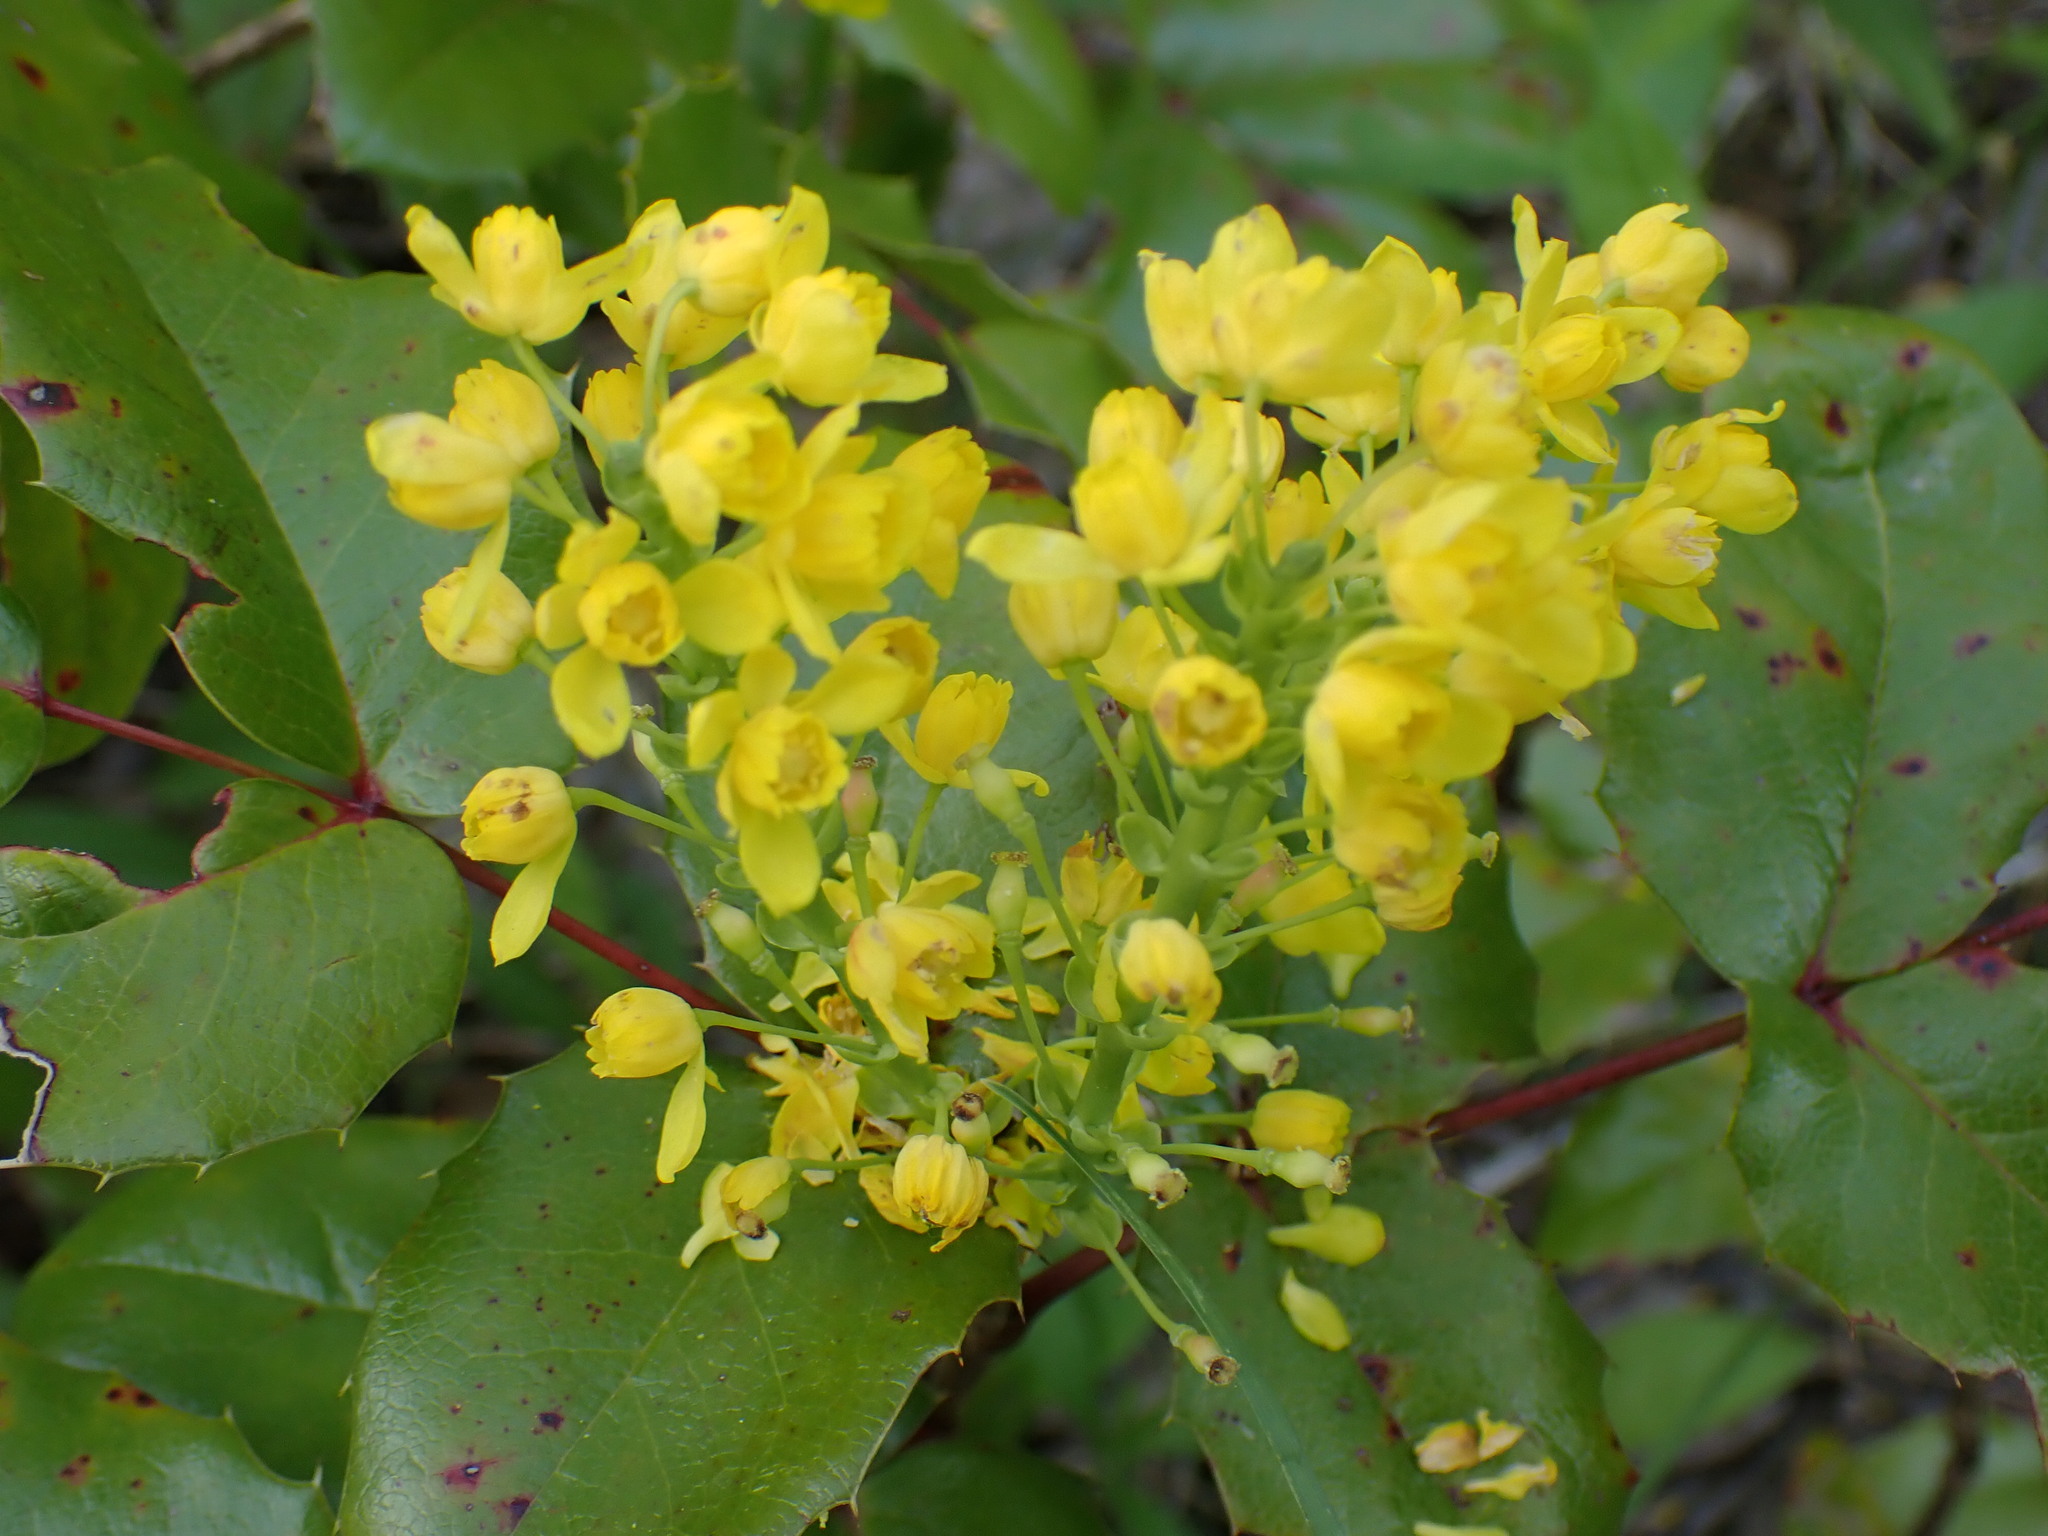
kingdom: Plantae
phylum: Tracheophyta
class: Magnoliopsida
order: Ranunculales
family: Berberidaceae
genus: Mahonia
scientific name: Mahonia aquifolium
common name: Oregon-grape
